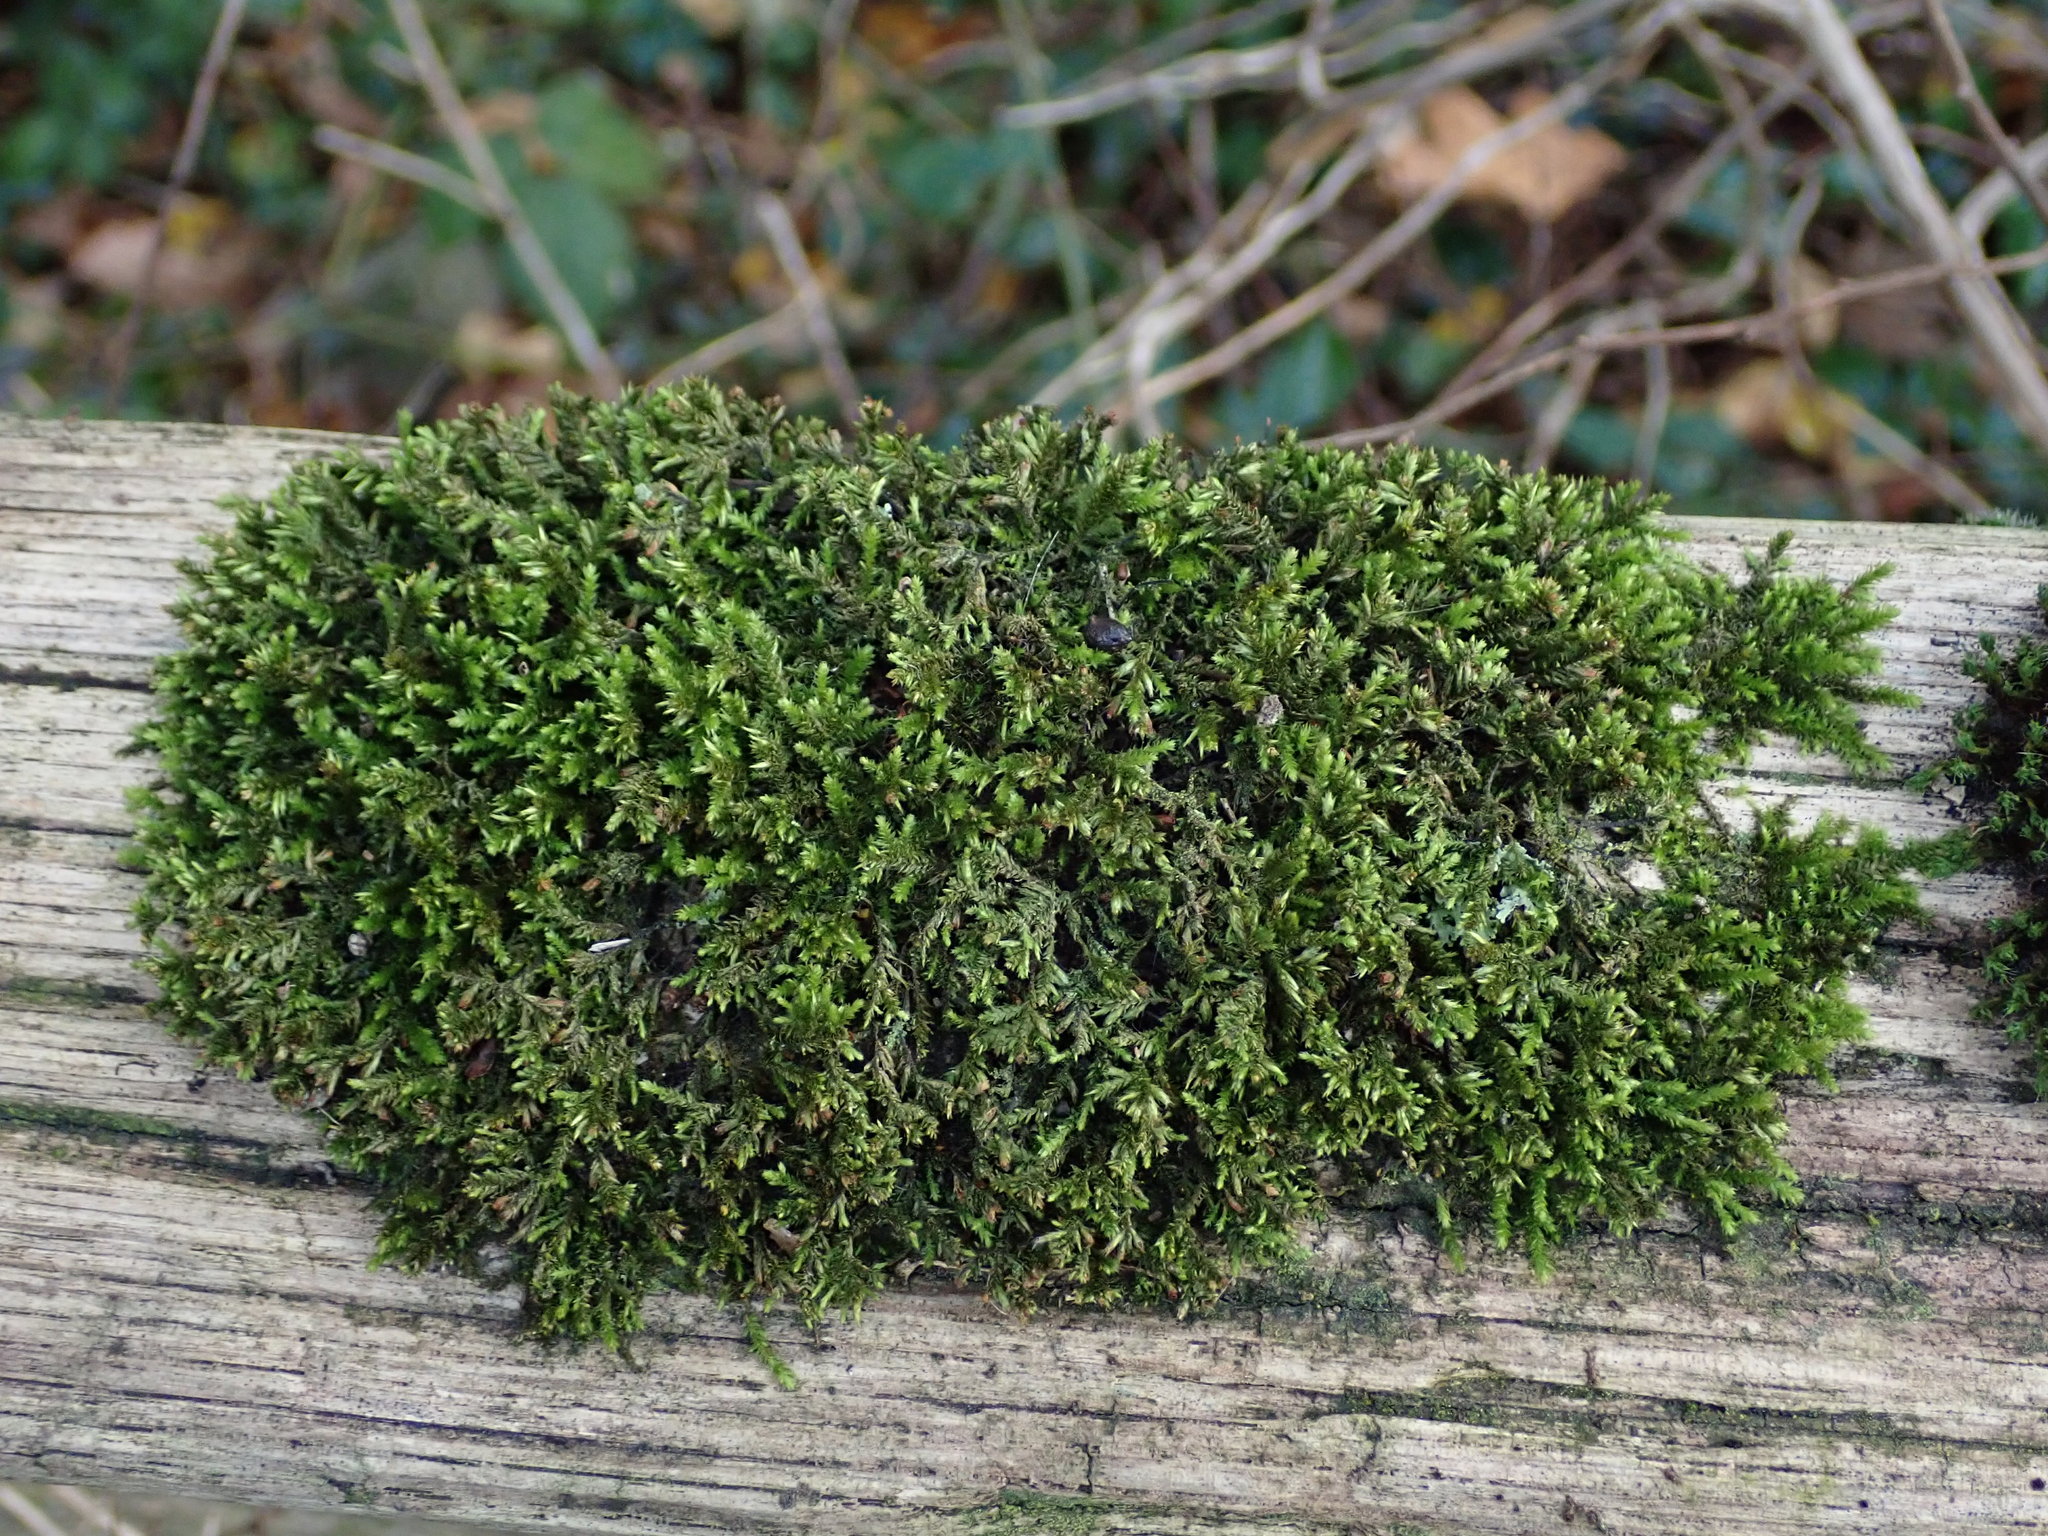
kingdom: Plantae
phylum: Bryophyta
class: Bryopsida
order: Hypnales
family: Cryphaeaceae
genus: Cryphaea
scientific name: Cryphaea heteromalla
